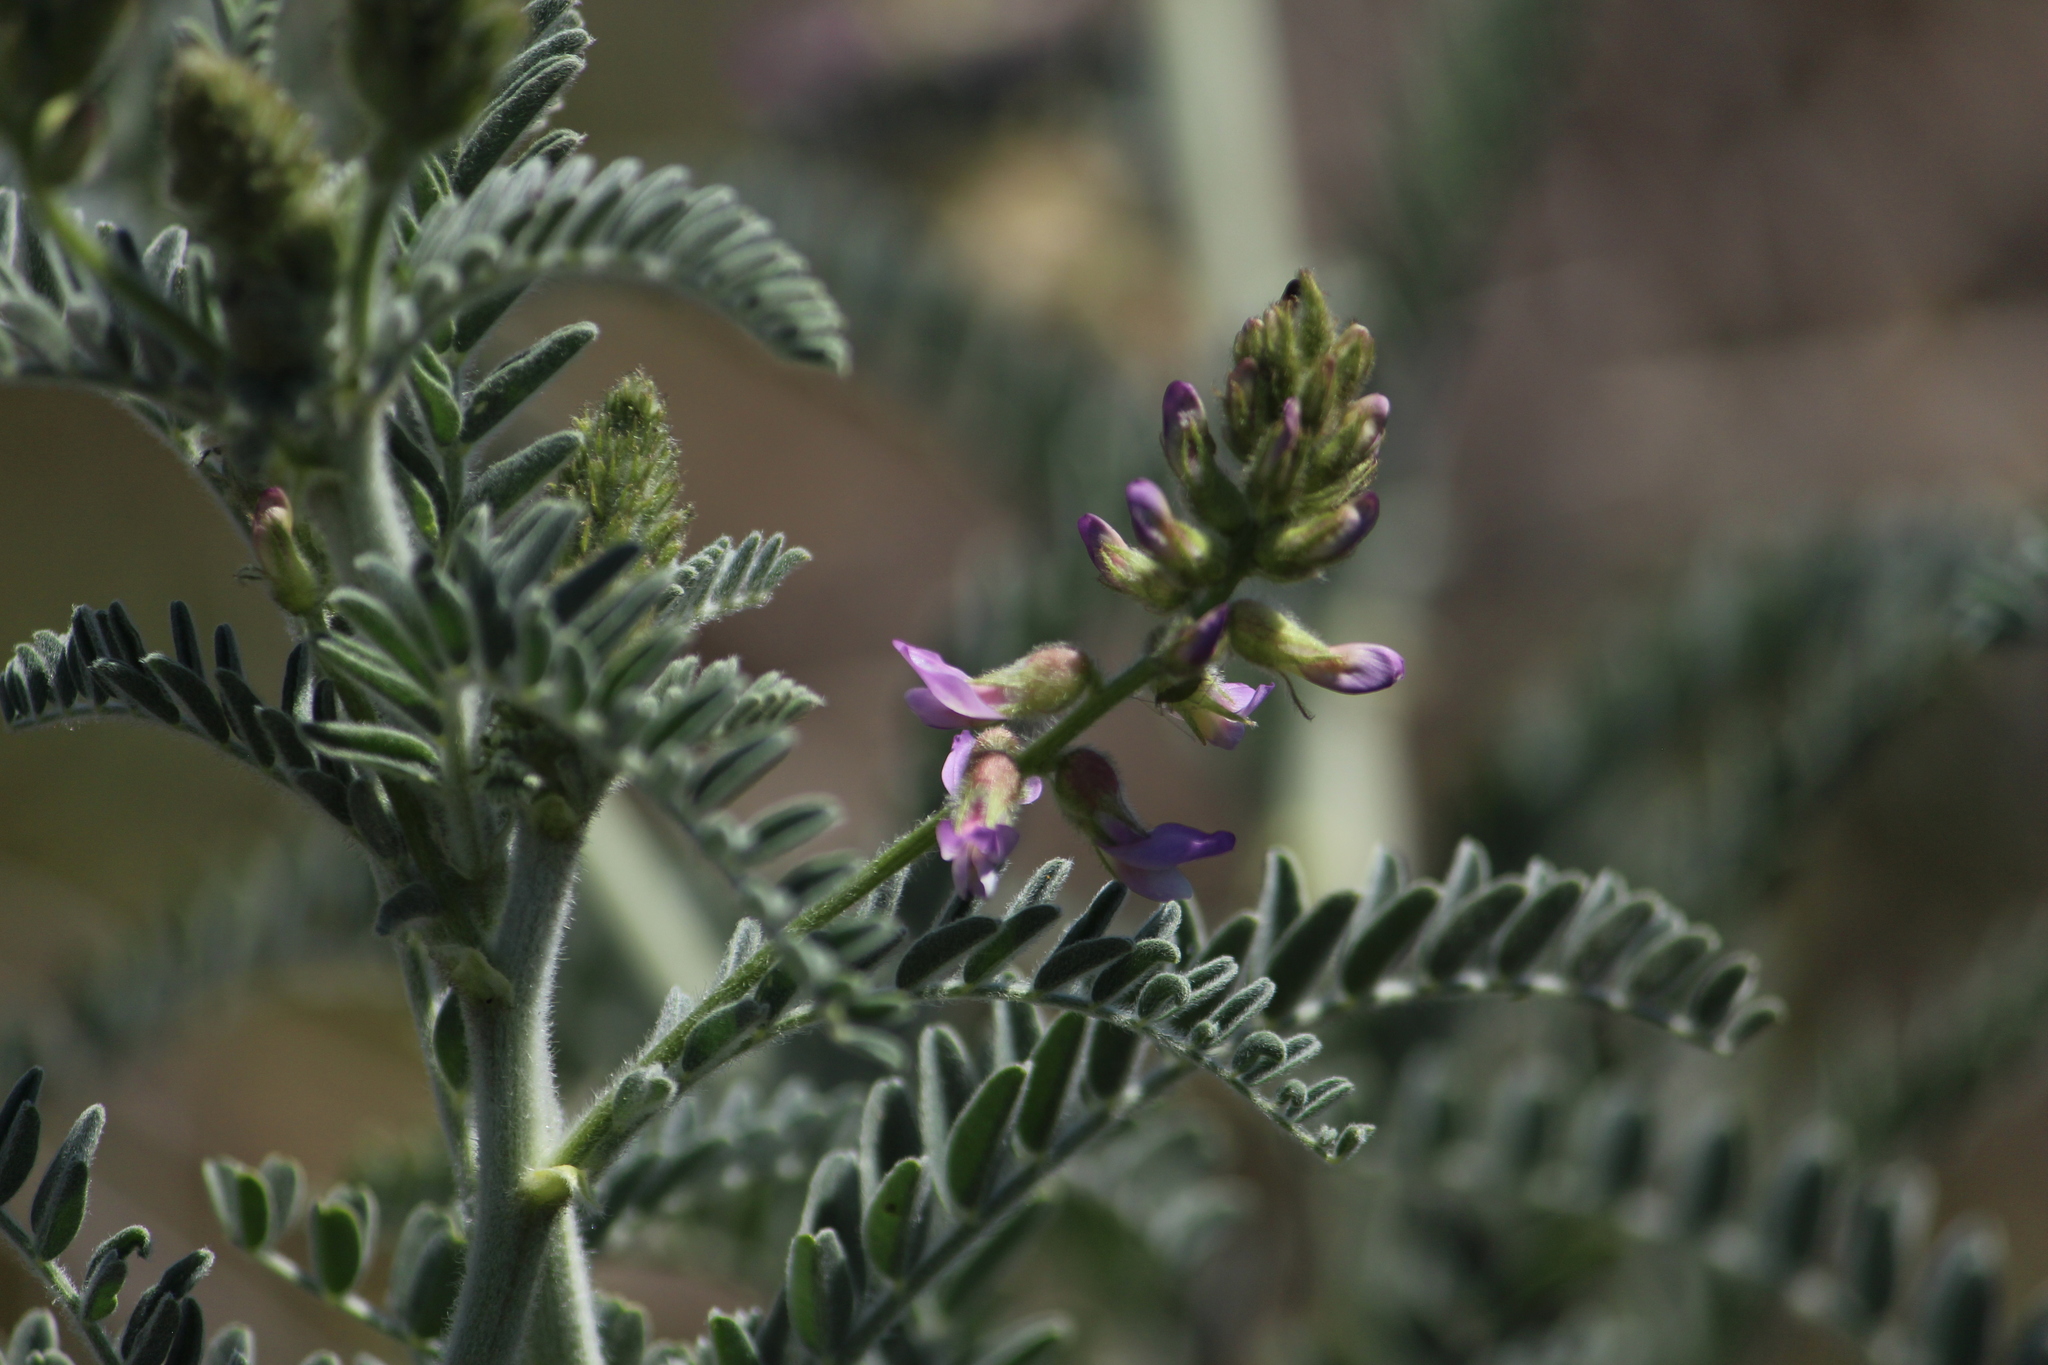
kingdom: Plantae
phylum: Tracheophyta
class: Magnoliopsida
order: Fabales
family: Fabaceae
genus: Astragalus
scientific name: Astragalus brauntonii
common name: Braunton's milk-vetch
